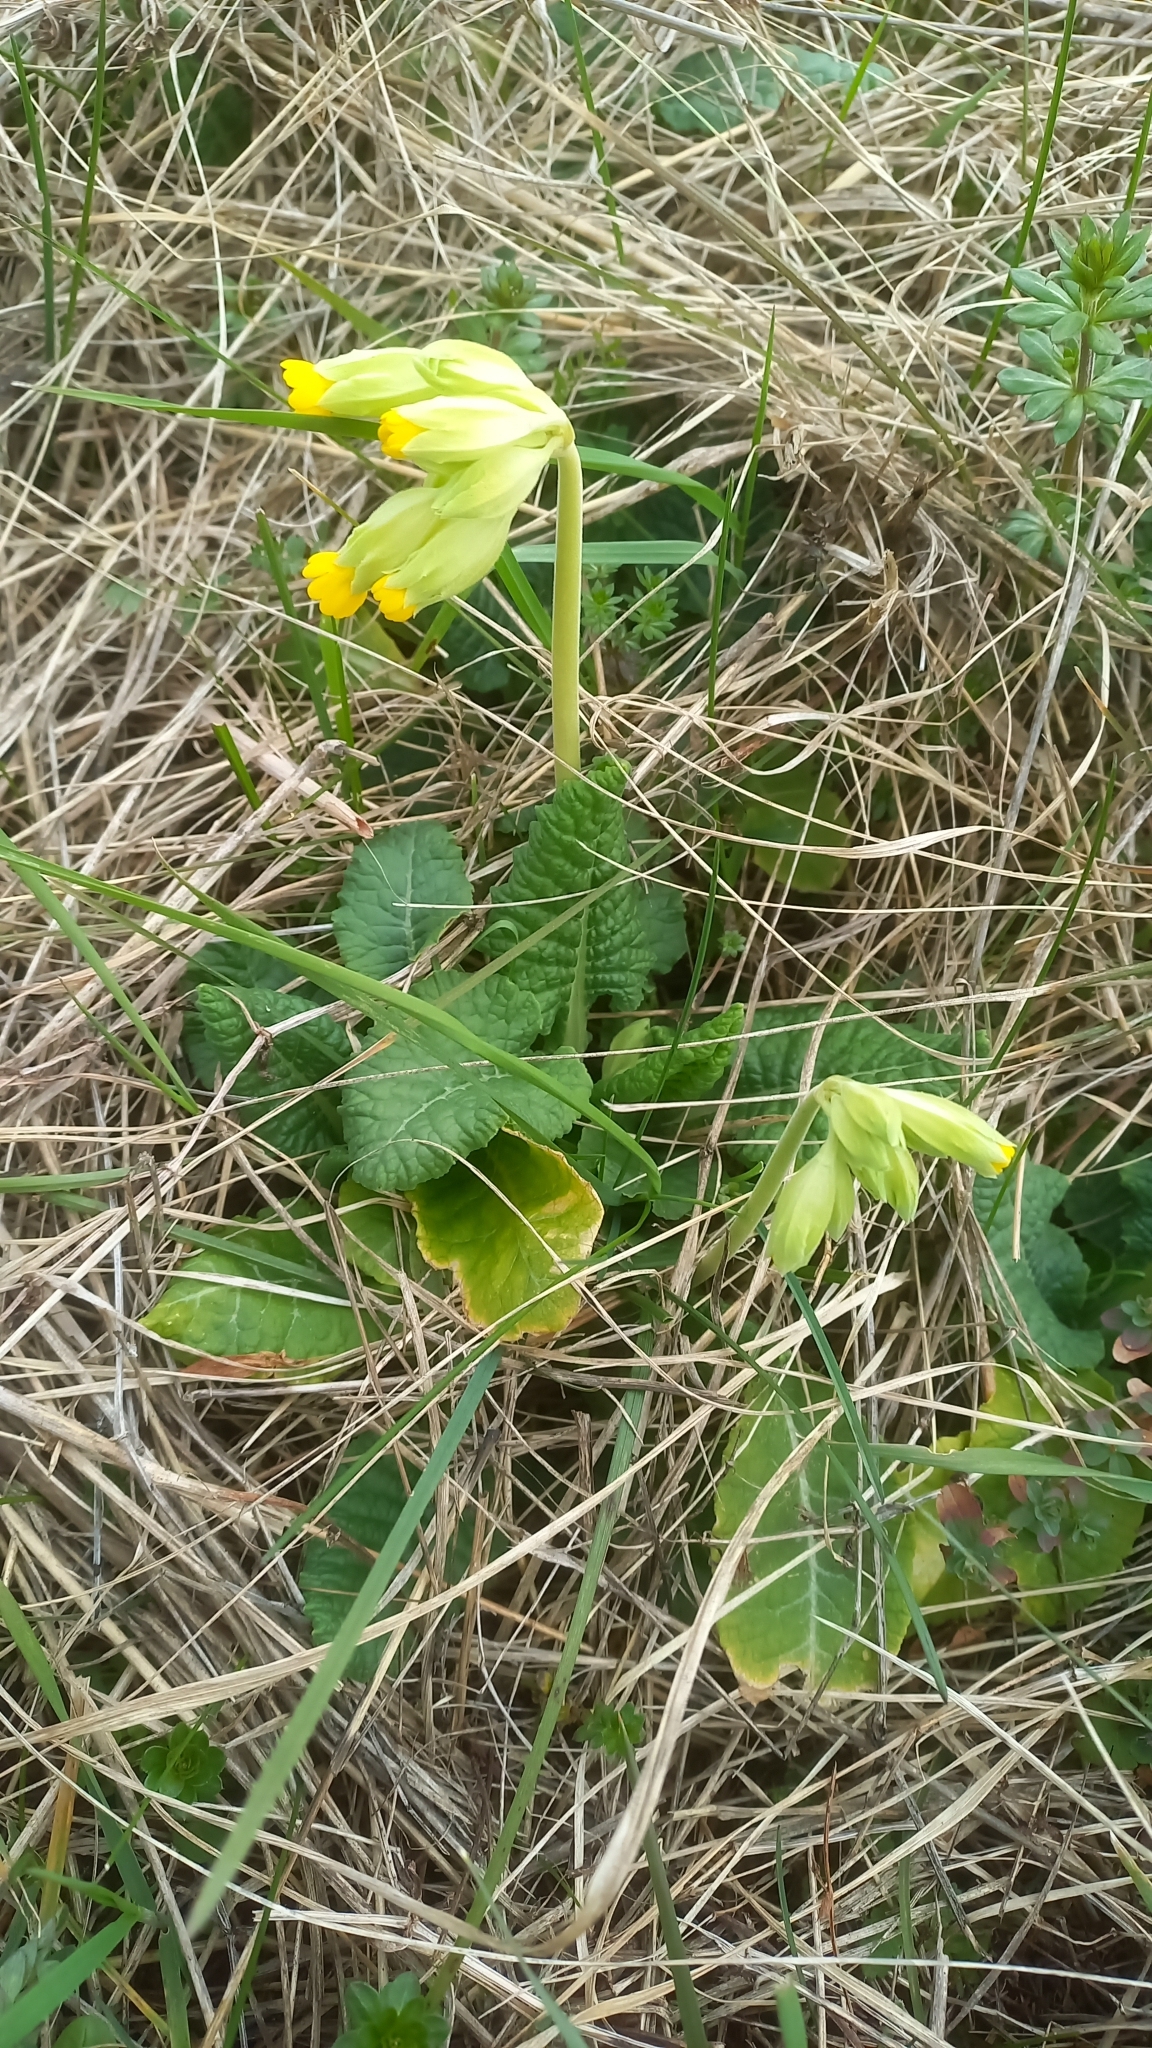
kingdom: Plantae
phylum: Tracheophyta
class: Magnoliopsida
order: Ericales
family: Primulaceae
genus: Primula
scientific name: Primula veris
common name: Cowslip
